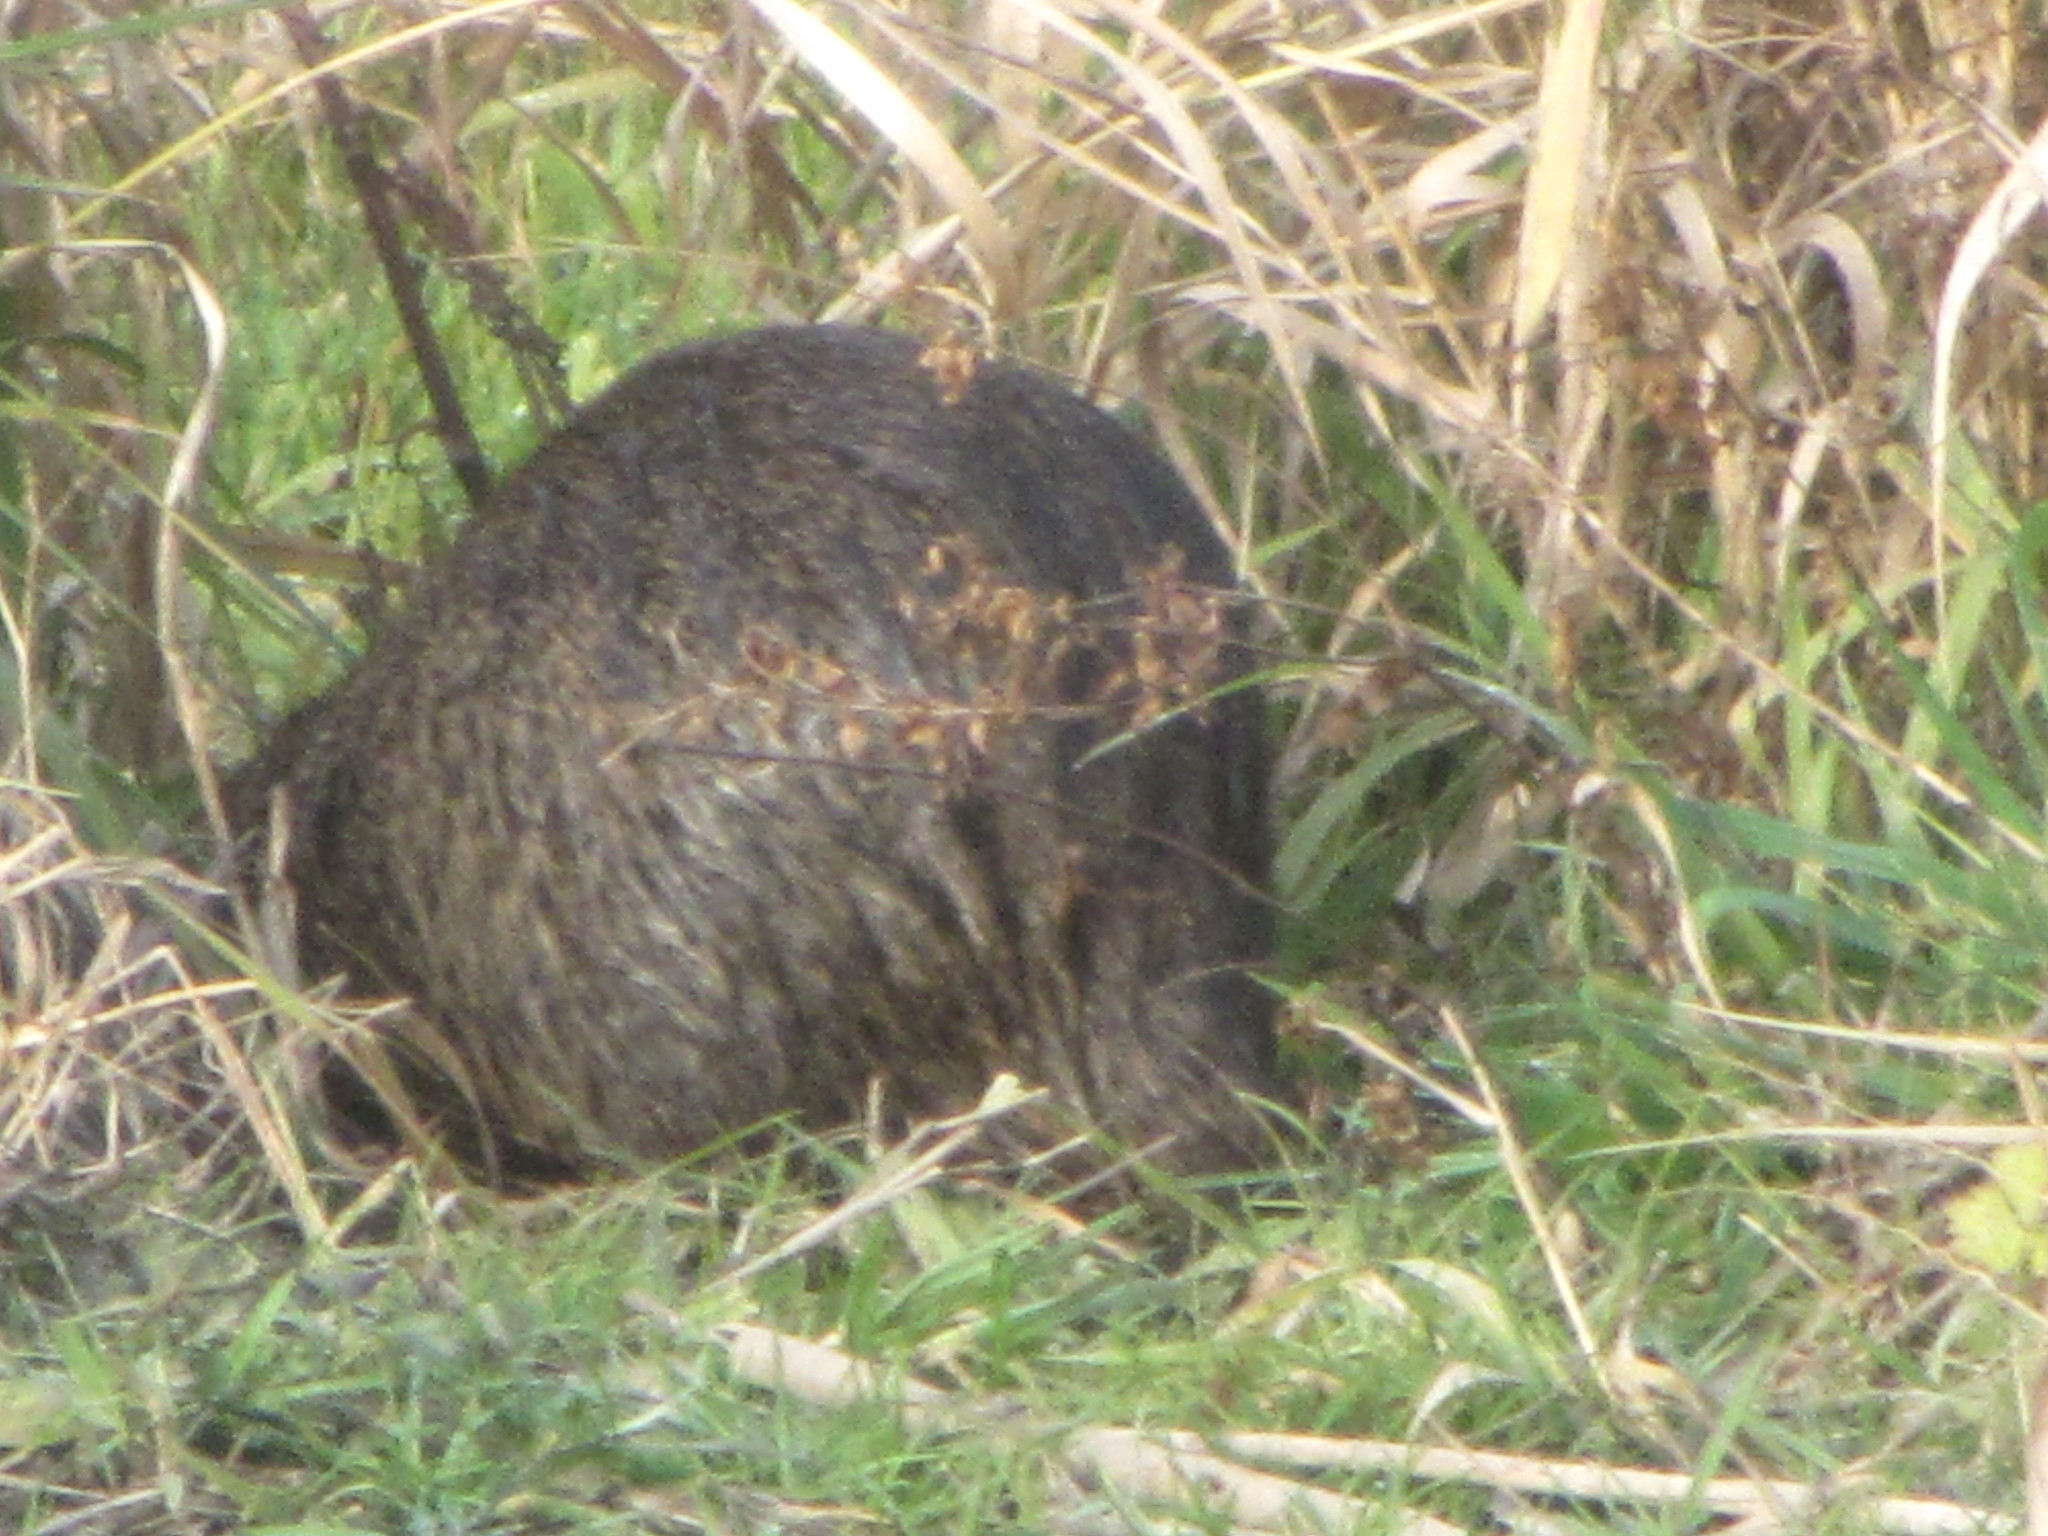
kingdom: Animalia
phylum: Chordata
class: Mammalia
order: Rodentia
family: Myocastoridae
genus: Myocastor
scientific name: Myocastor coypus
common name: Coypu
